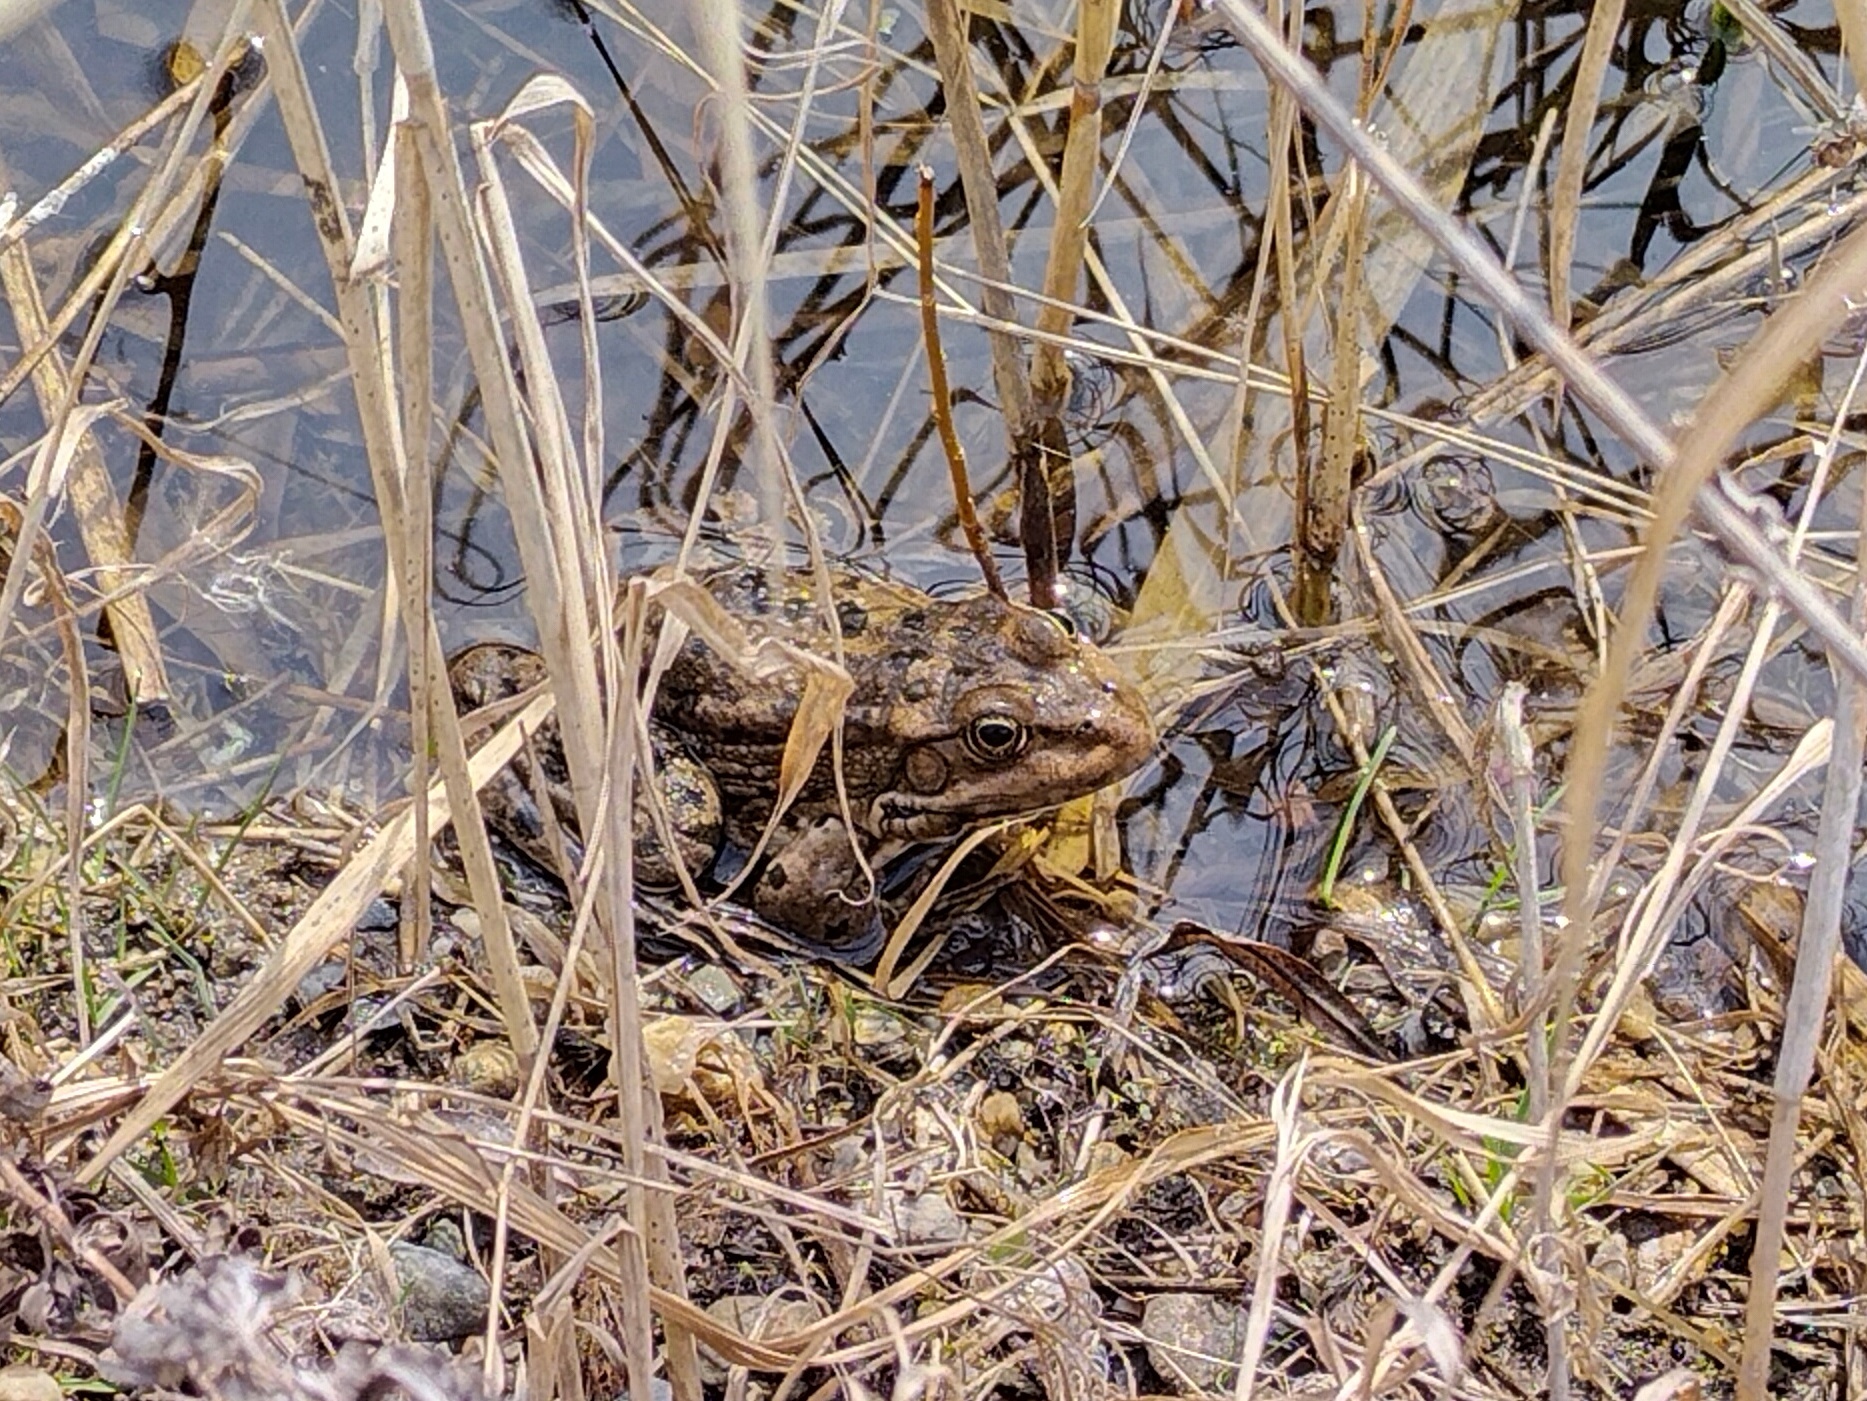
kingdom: Animalia
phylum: Chordata
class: Amphibia
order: Anura
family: Ranidae
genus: Pelophylax
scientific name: Pelophylax ridibundus
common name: Marsh frog
